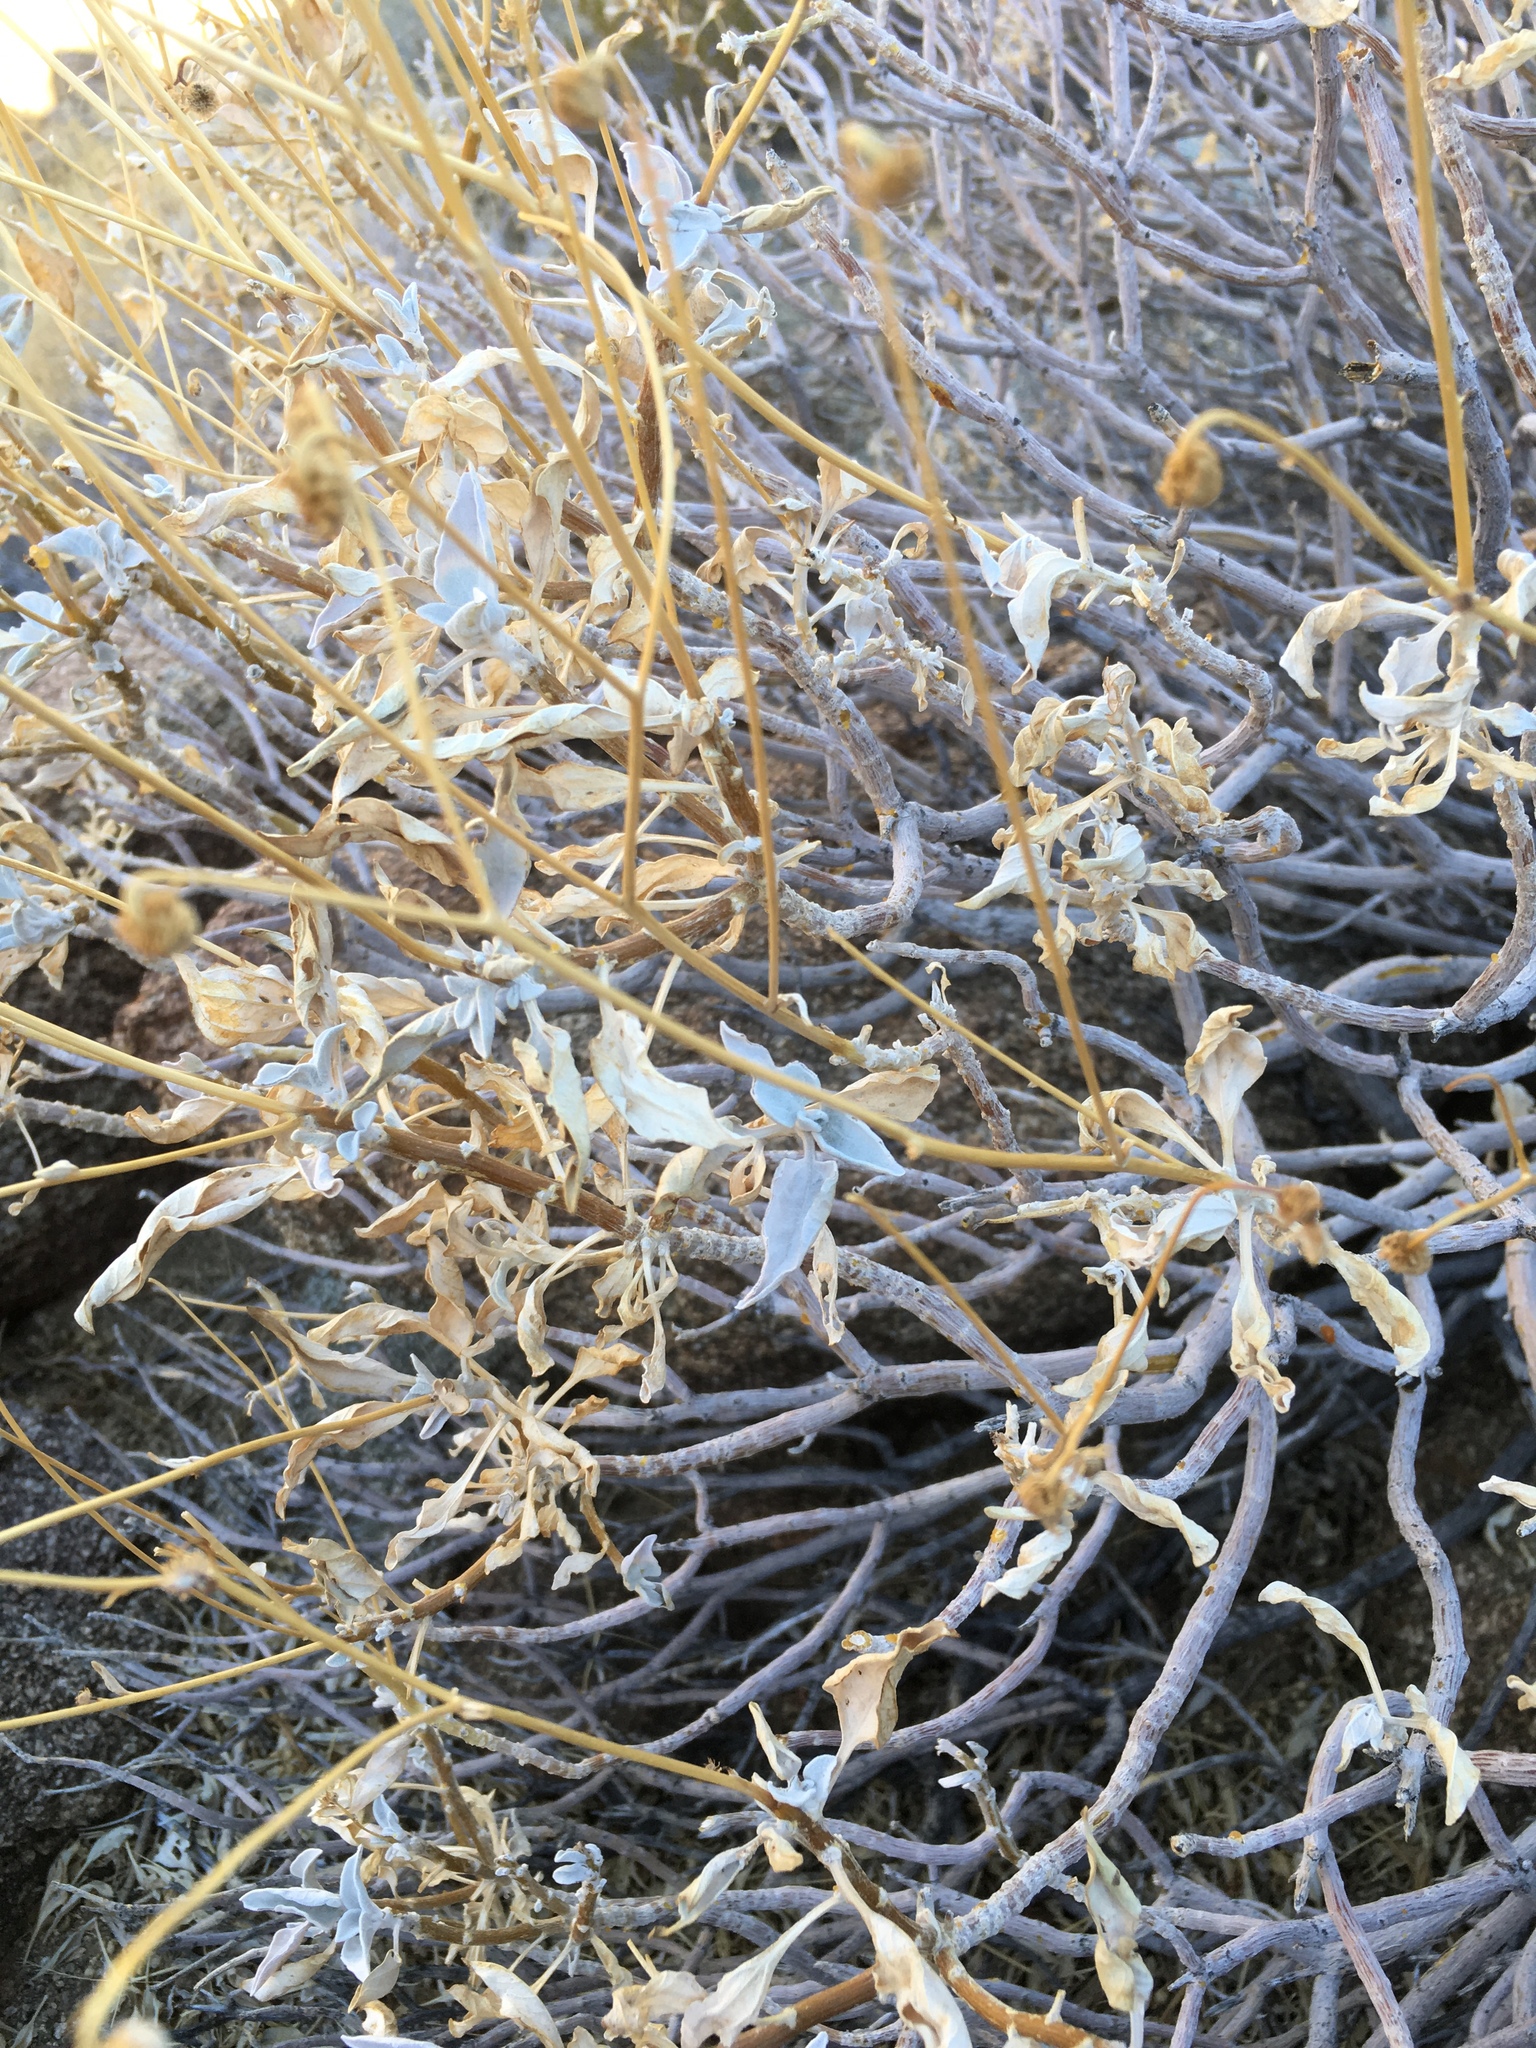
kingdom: Plantae
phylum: Tracheophyta
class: Magnoliopsida
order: Asterales
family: Asteraceae
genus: Encelia
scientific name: Encelia farinosa
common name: Brittlebush
